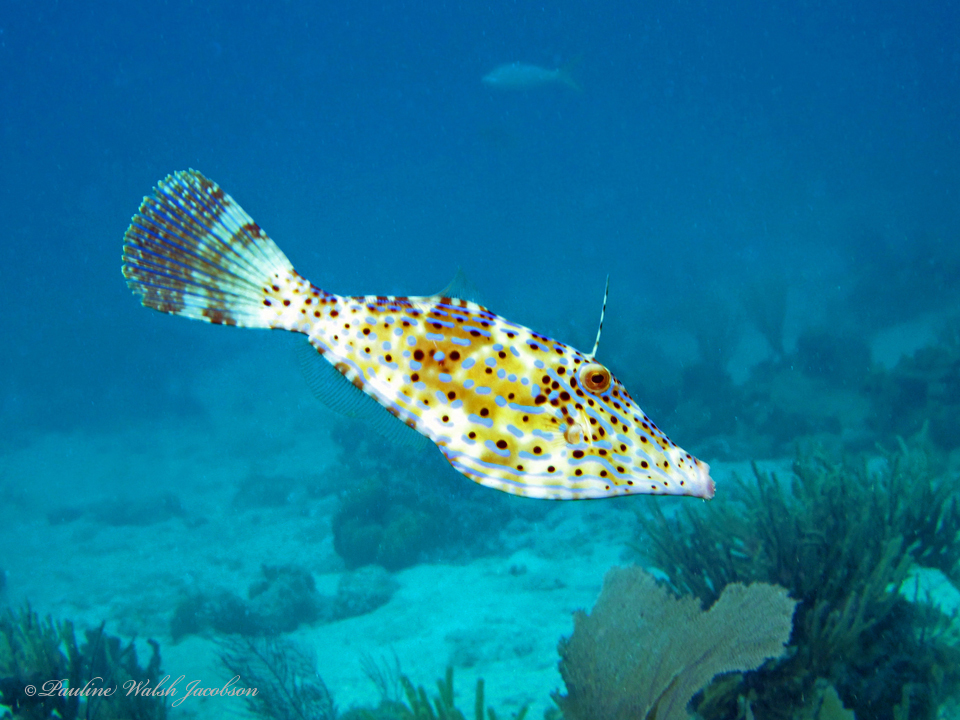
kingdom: Animalia
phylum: Chordata
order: Tetraodontiformes
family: Monacanthidae
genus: Aluterus
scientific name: Aluterus scriptus
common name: Scribbled leatherjacket filefish
